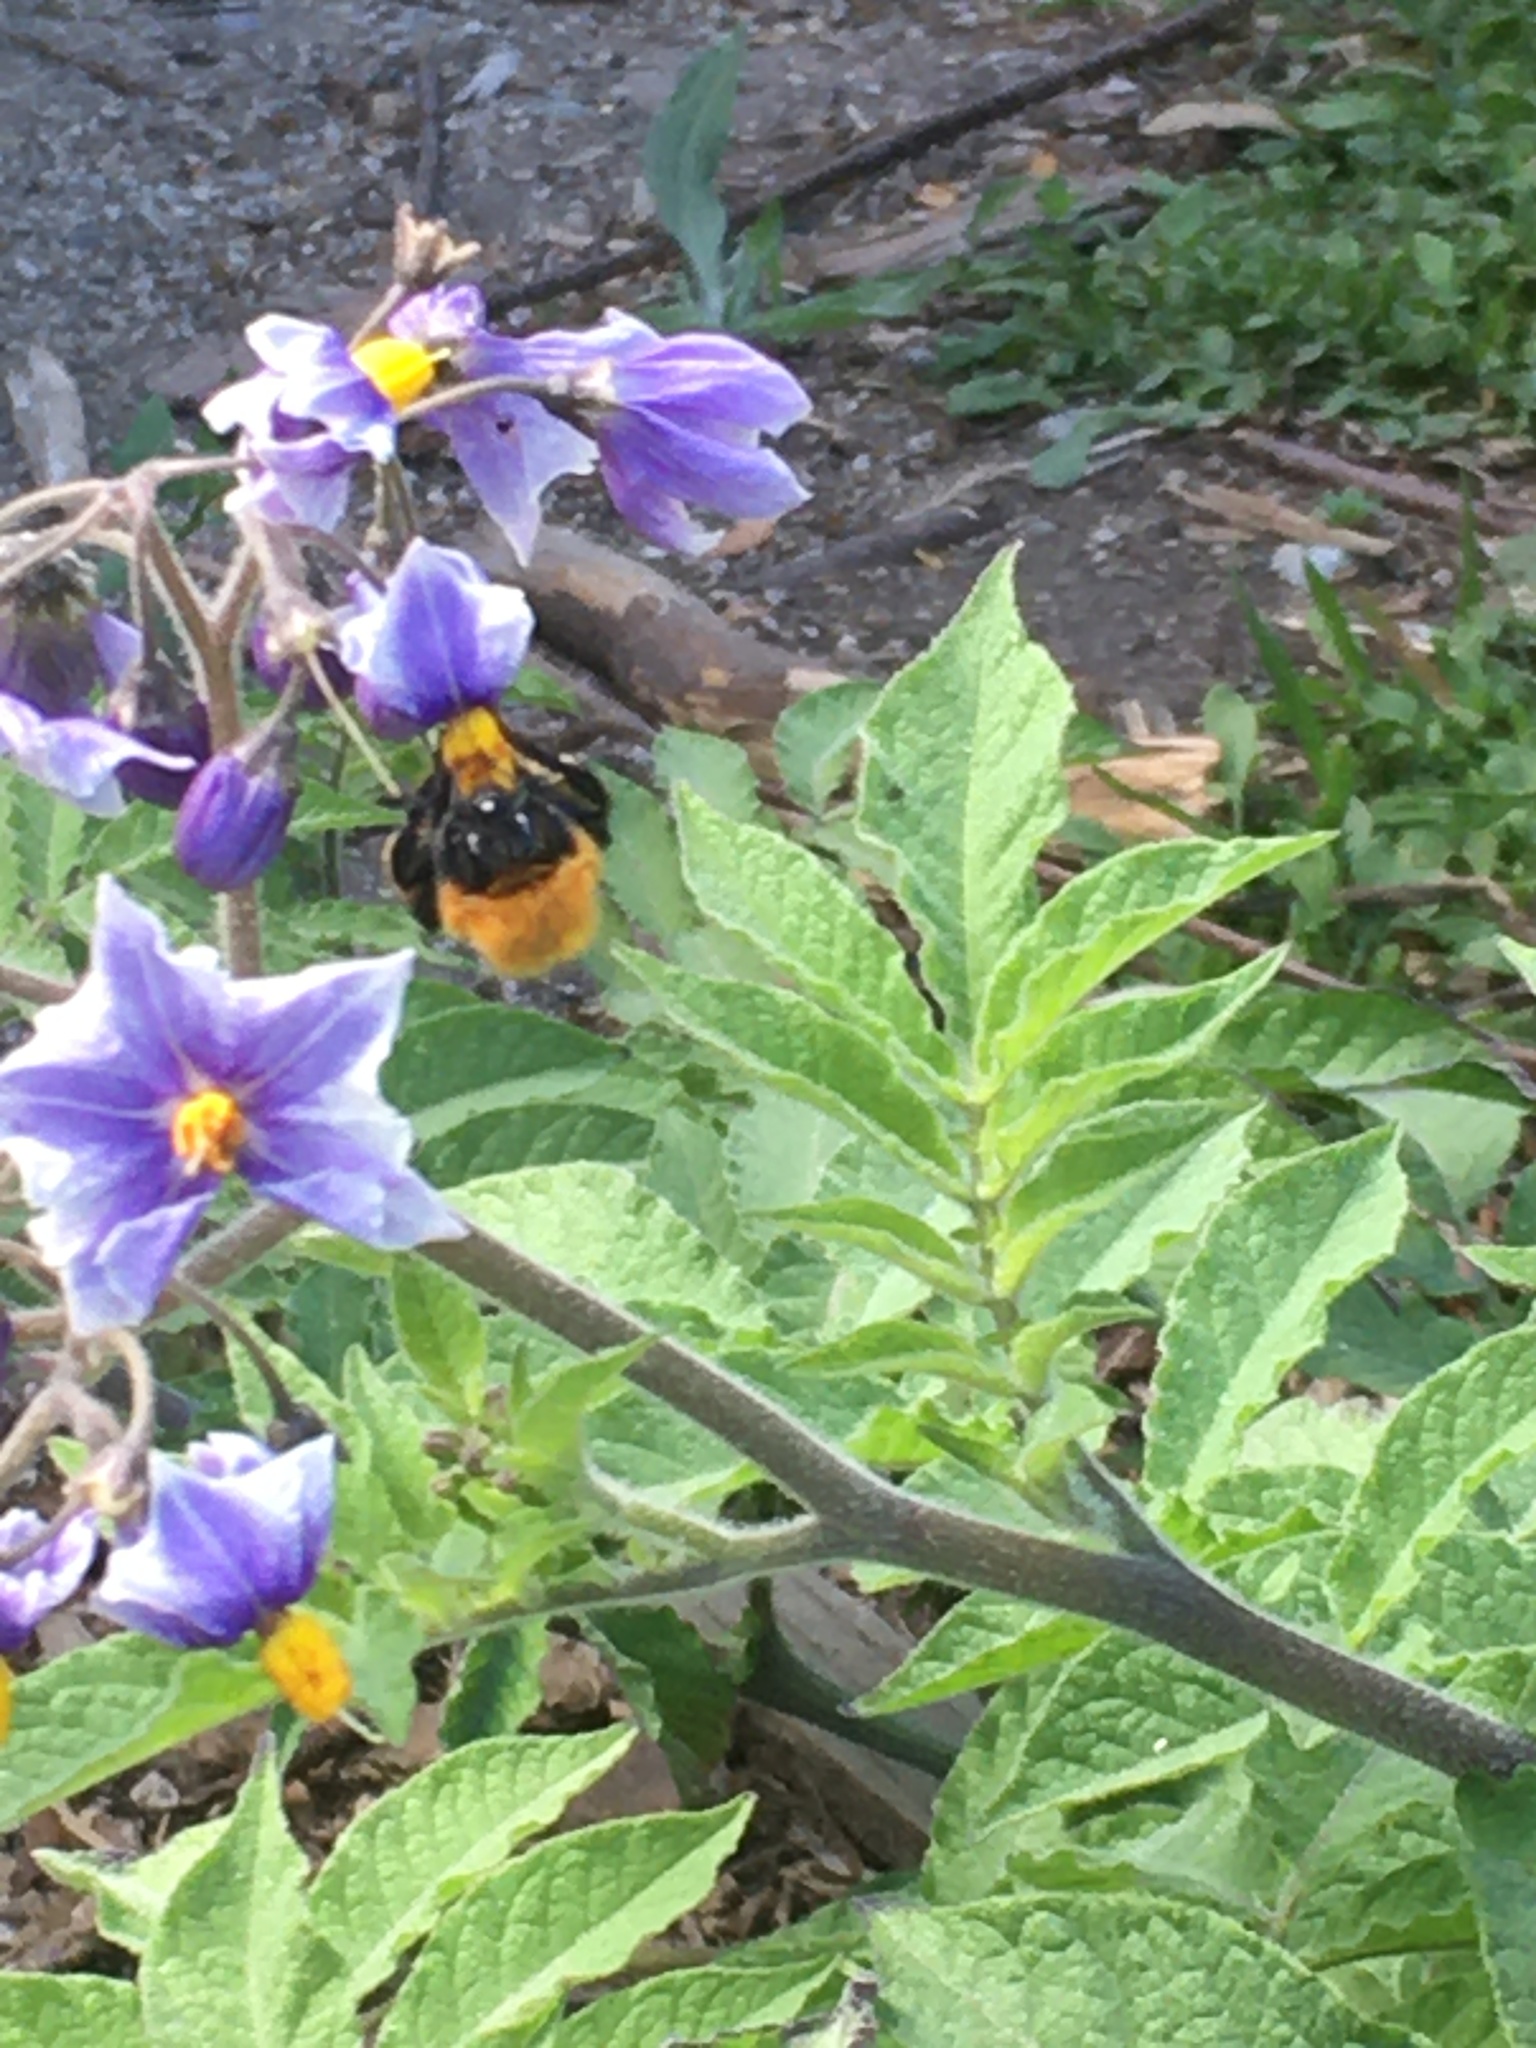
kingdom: Animalia
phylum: Arthropoda
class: Insecta
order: Hymenoptera
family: Apidae
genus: Bombus
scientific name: Bombus dahlbomii
